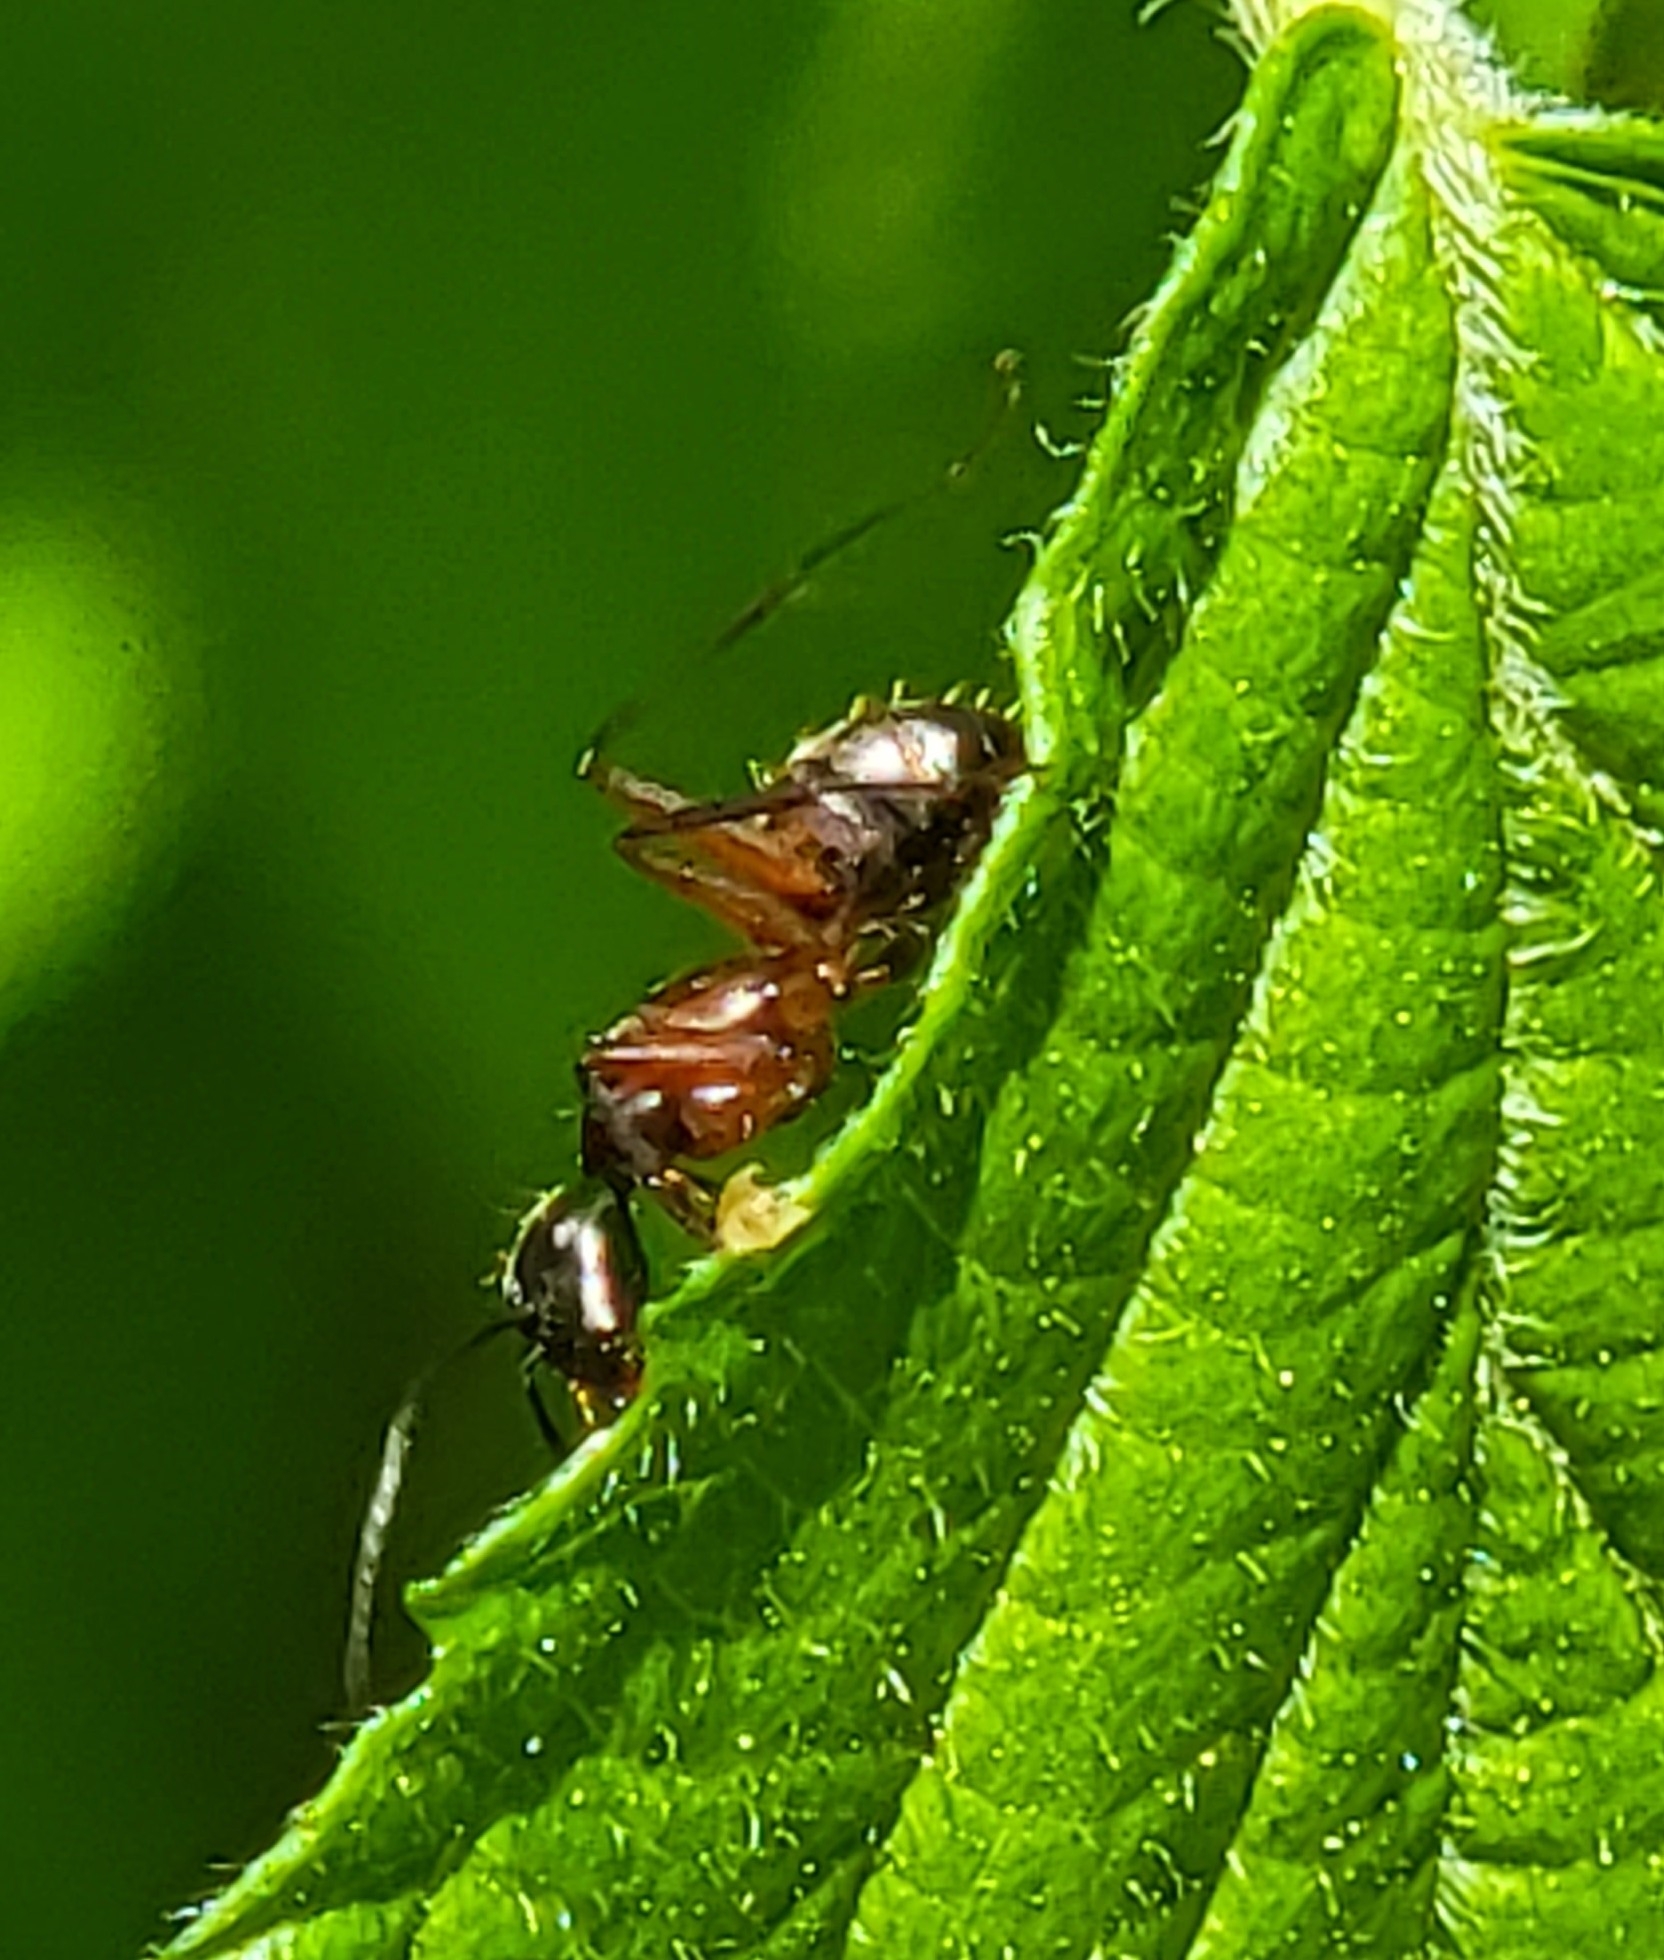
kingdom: Animalia
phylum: Arthropoda
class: Insecta
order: Hymenoptera
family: Formicidae
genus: Camponotus
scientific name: Camponotus chromaiodes
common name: Red carpenter ant
